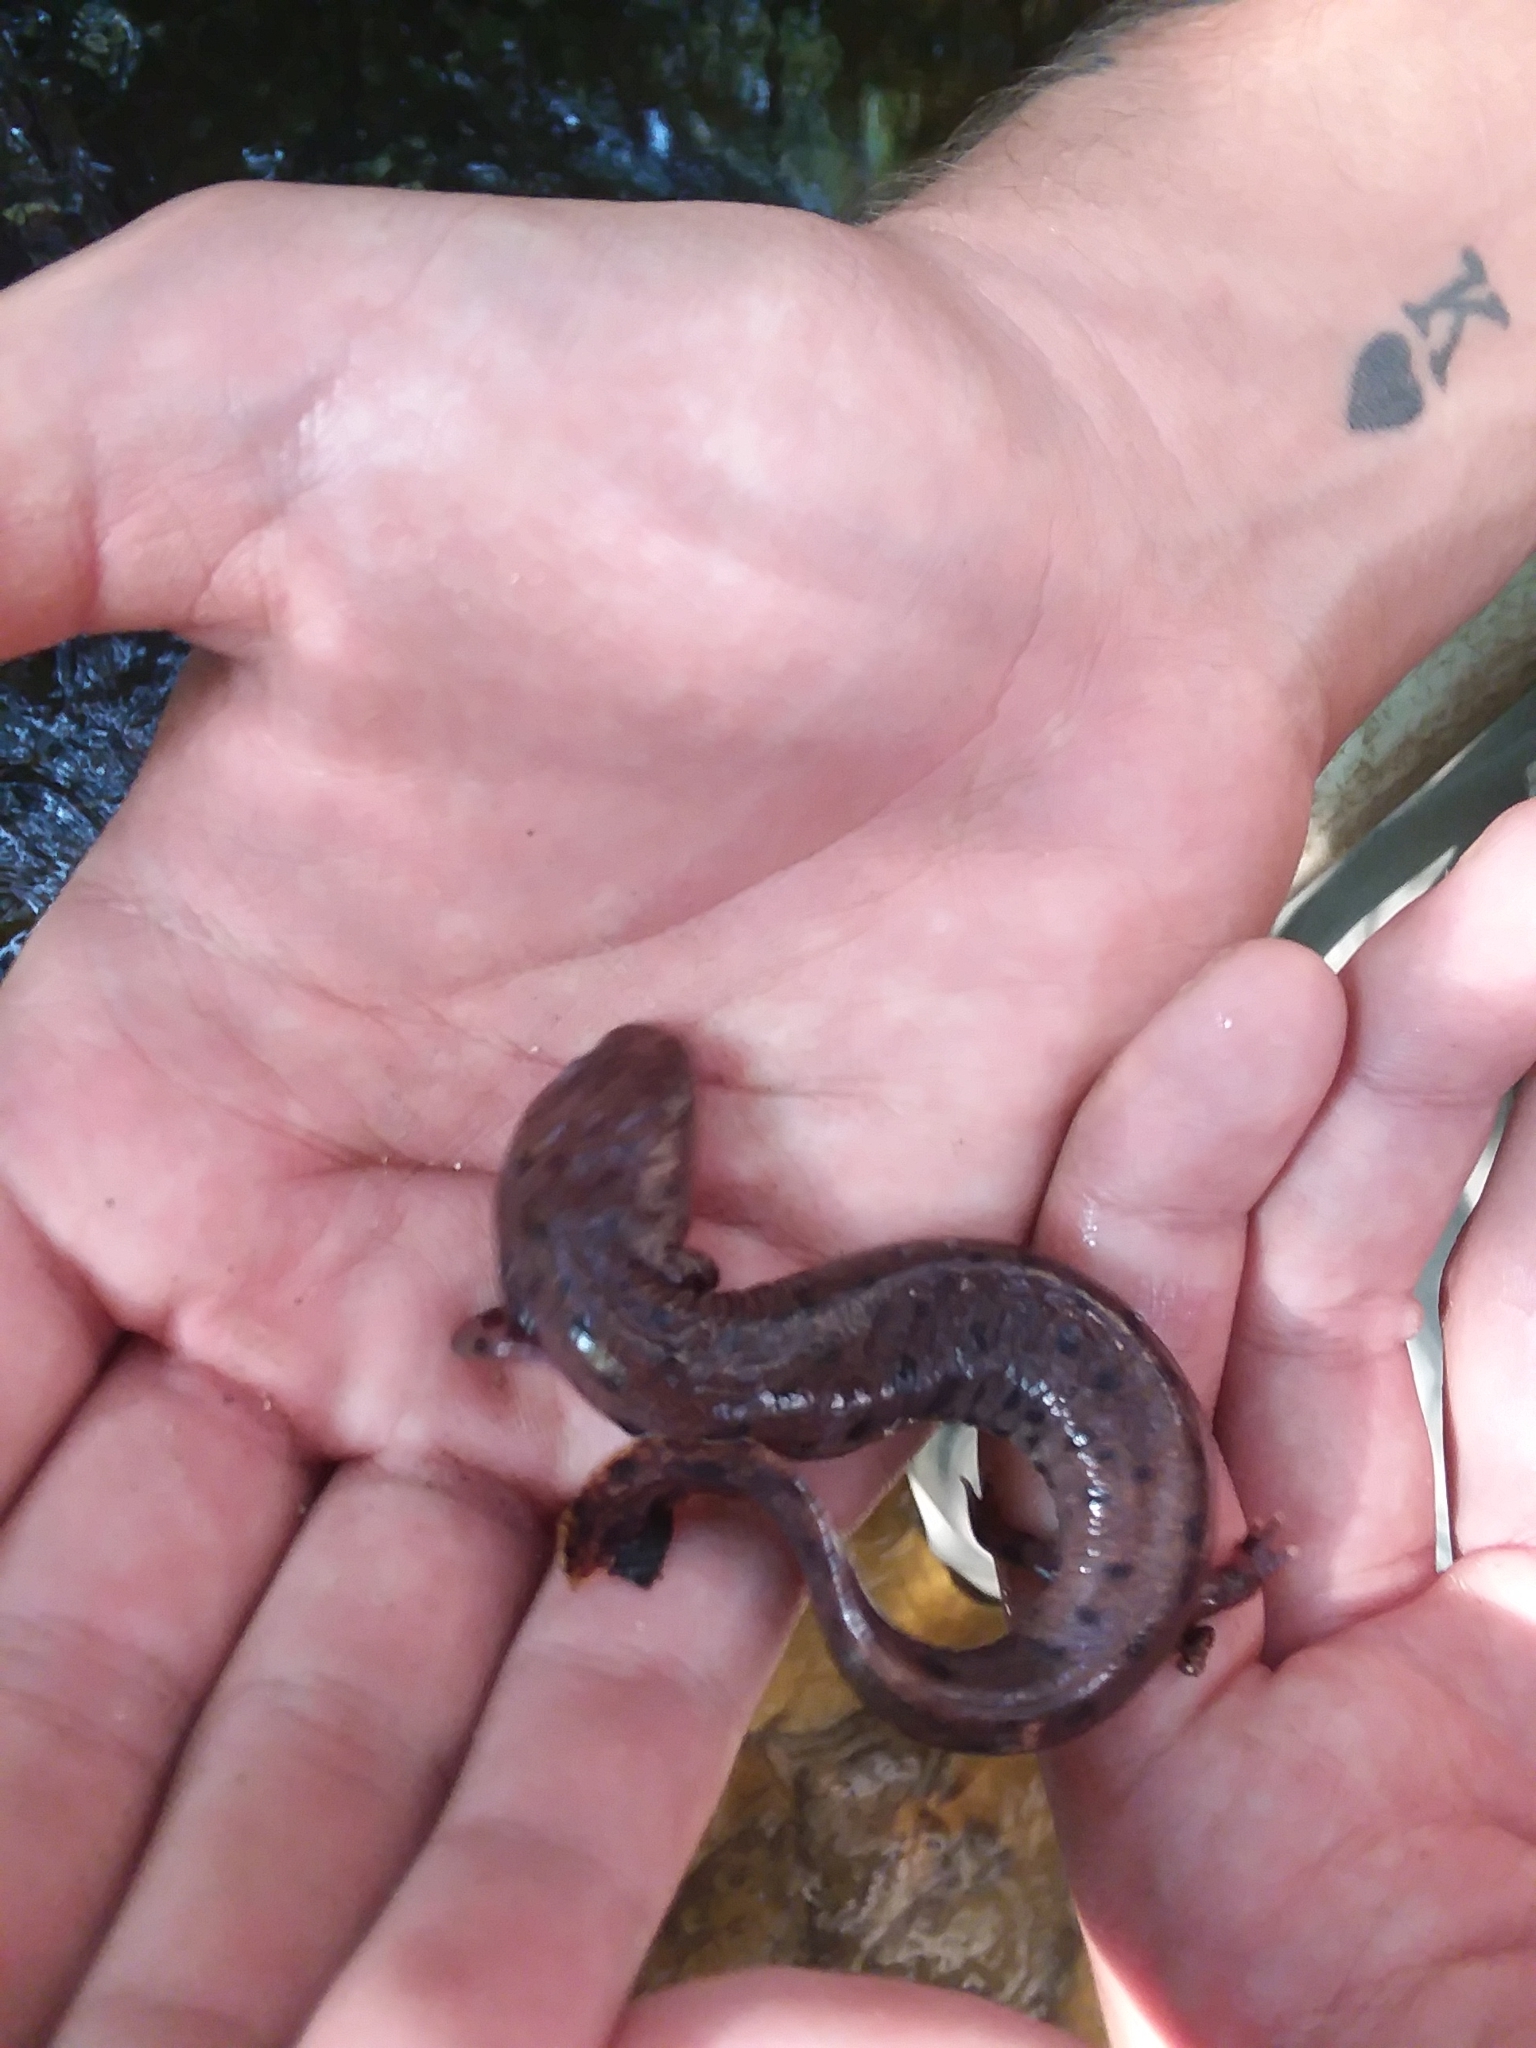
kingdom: Animalia
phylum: Chordata
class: Amphibia
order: Caudata
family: Proteidae
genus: Necturus
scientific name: Necturus beyeri
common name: Gulf coast waterdog
